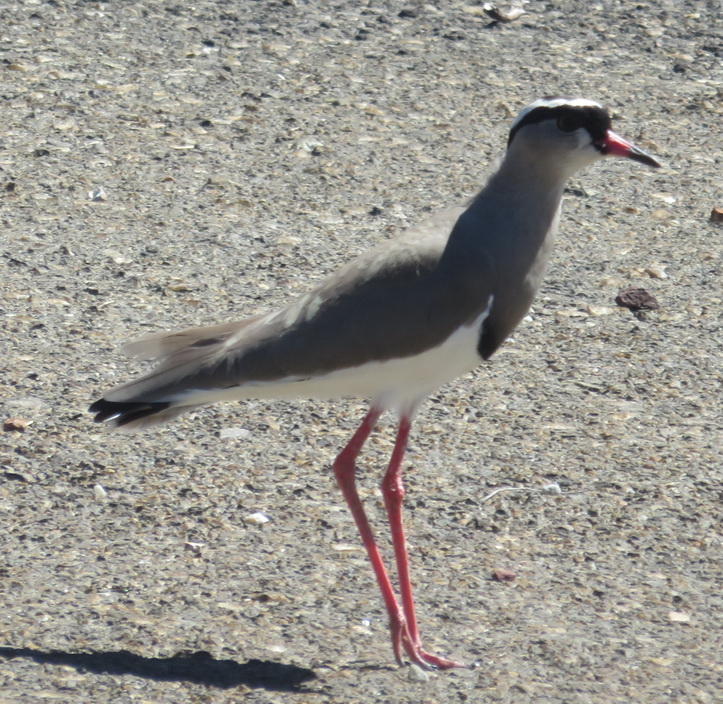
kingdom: Animalia
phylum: Chordata
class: Aves
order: Charadriiformes
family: Charadriidae
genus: Vanellus
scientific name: Vanellus coronatus
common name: Crowned lapwing
